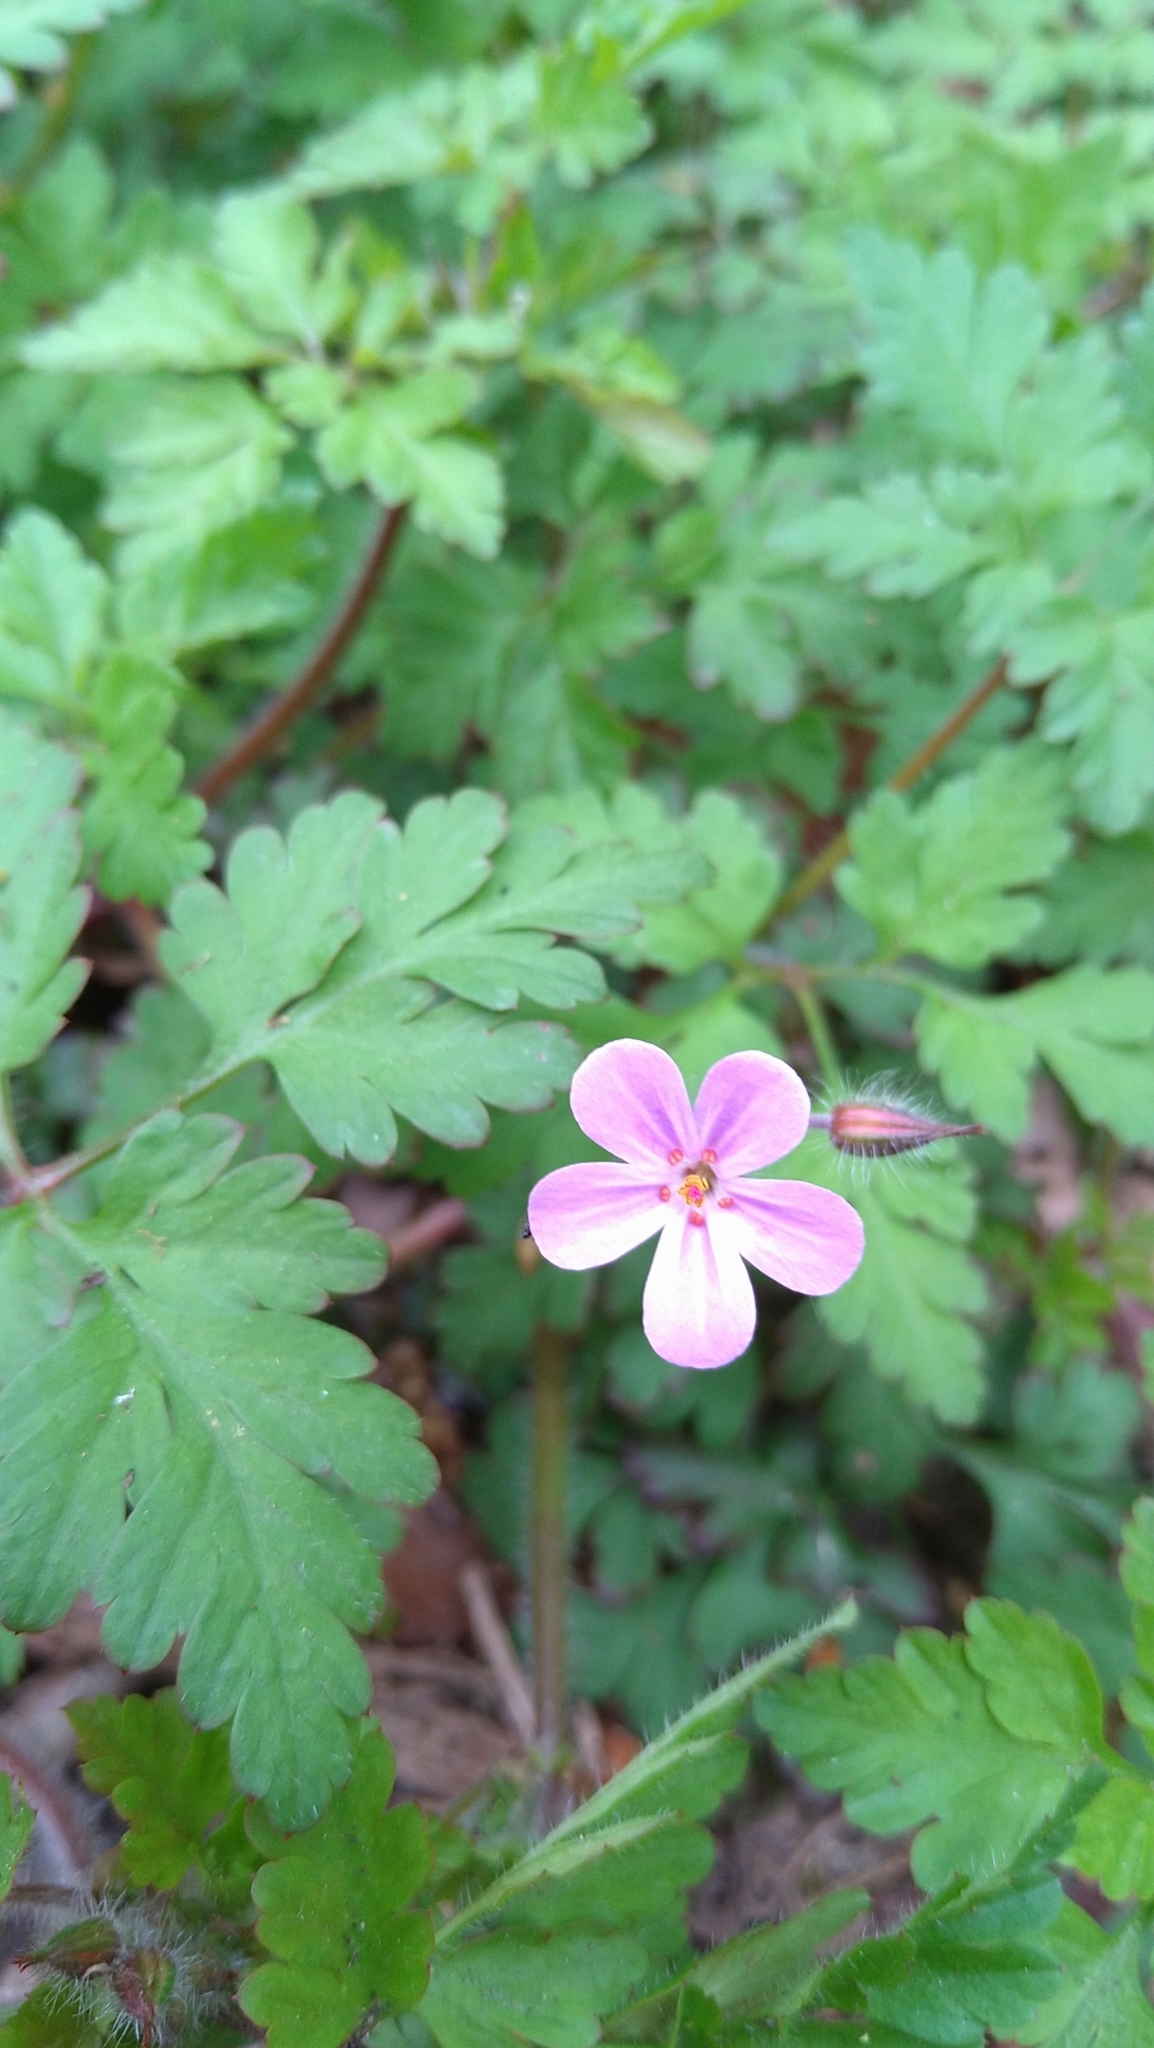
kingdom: Plantae
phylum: Tracheophyta
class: Magnoliopsida
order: Geraniales
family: Geraniaceae
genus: Geranium
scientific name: Geranium robertianum
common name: Herb-robert
